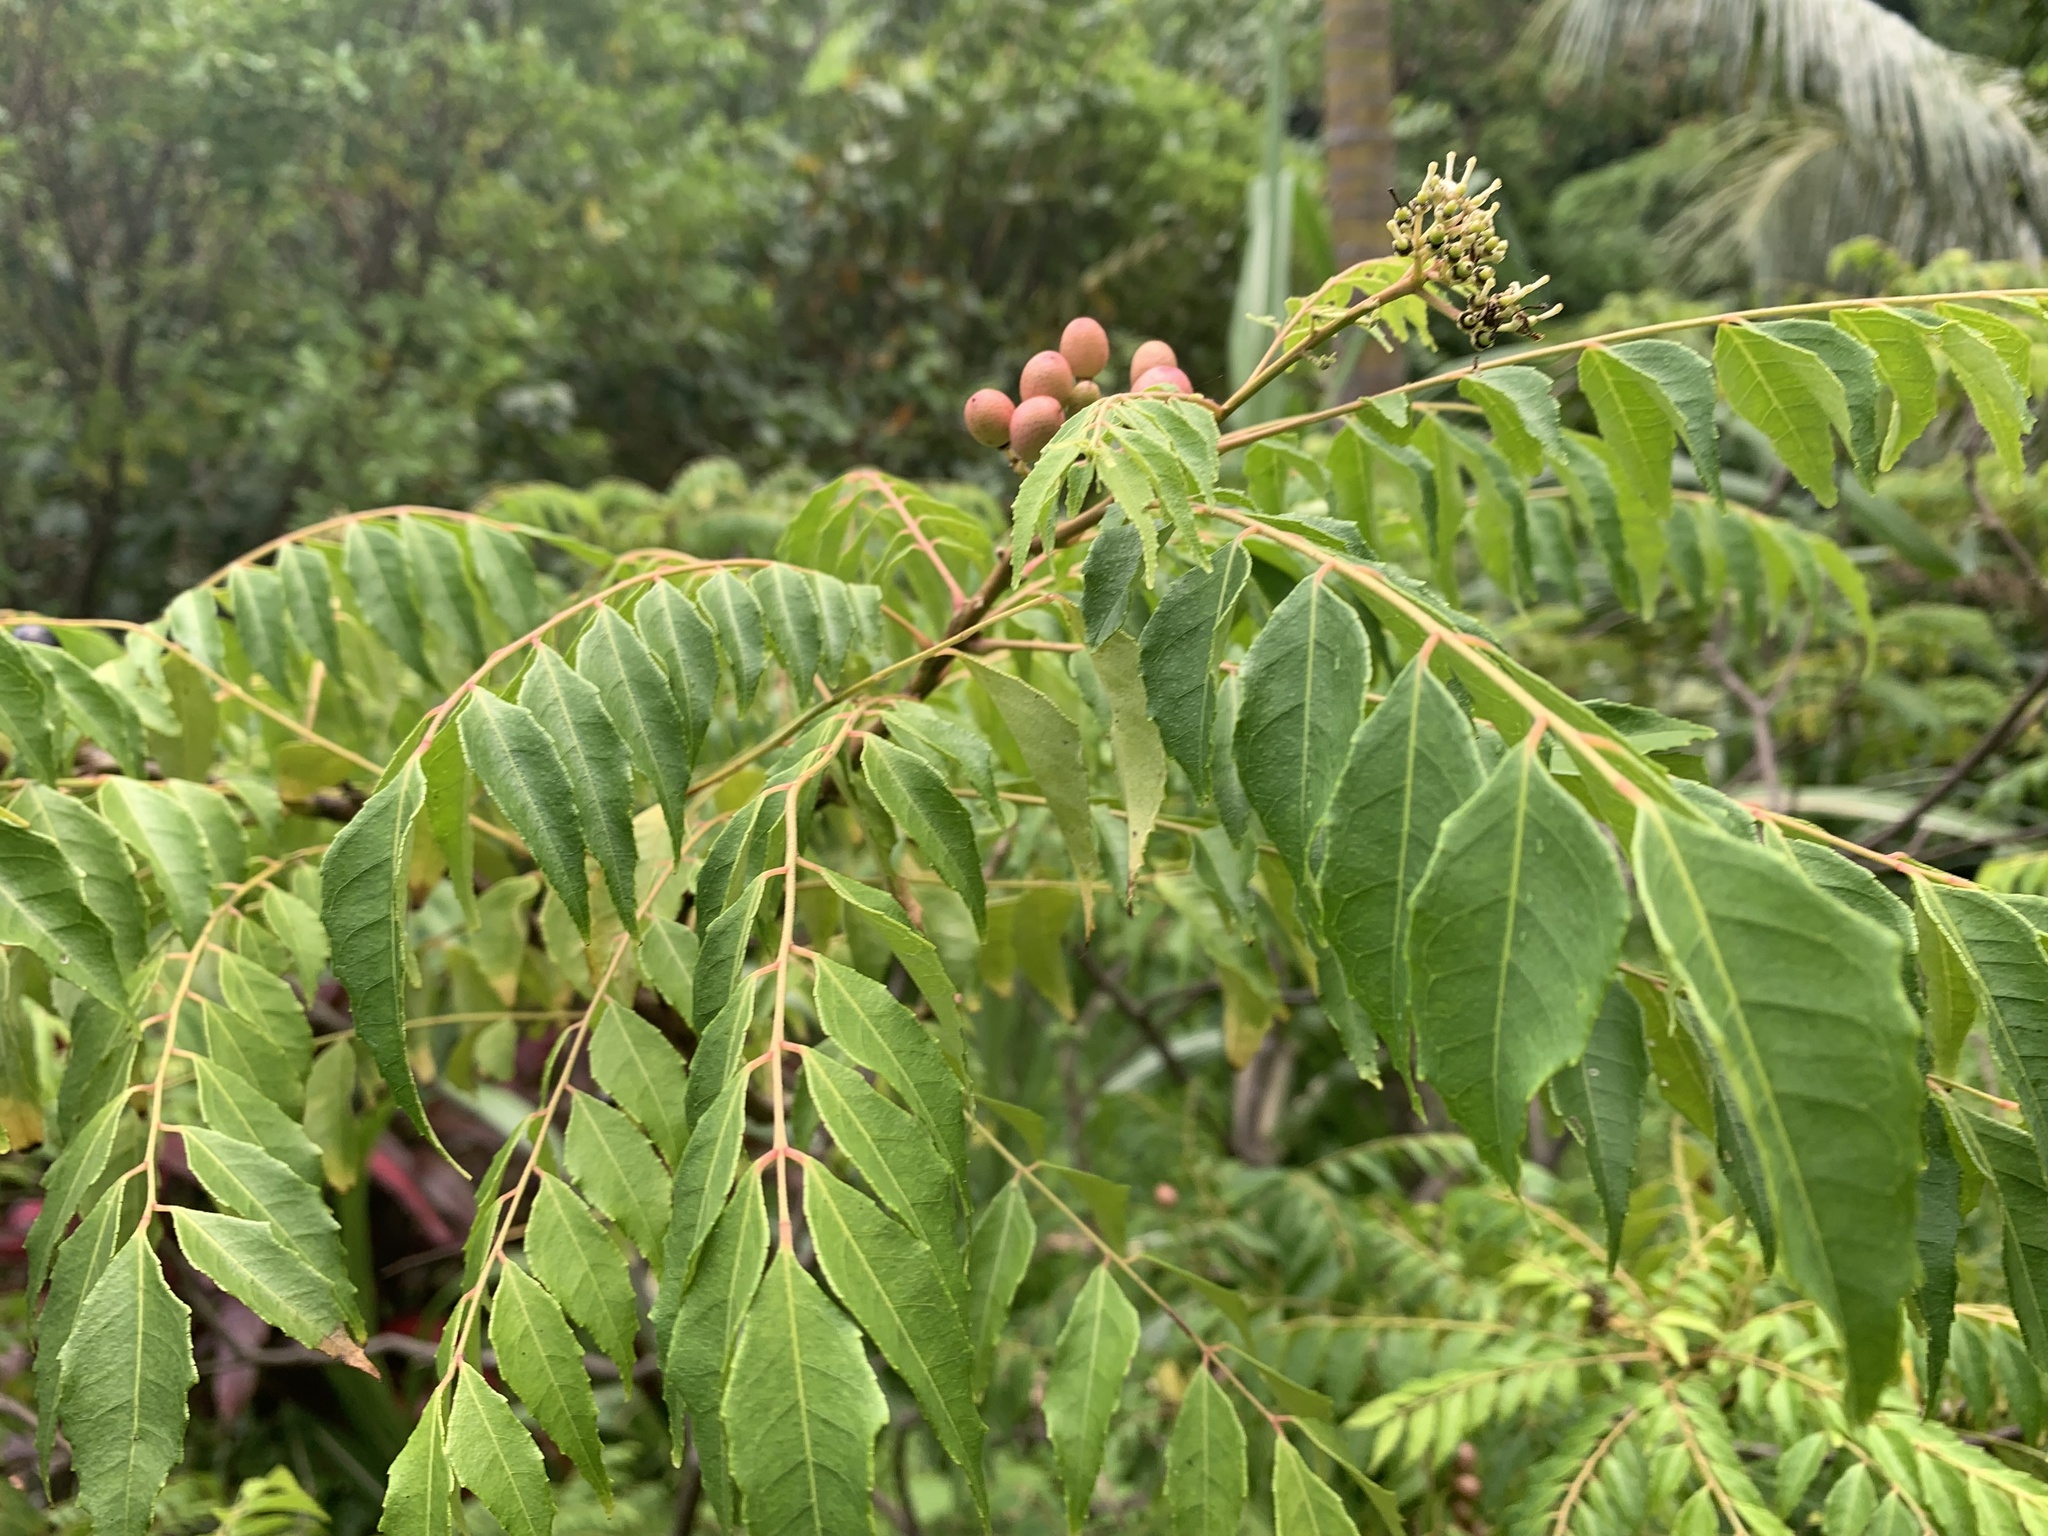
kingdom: Plantae
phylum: Tracheophyta
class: Magnoliopsida
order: Sapindales
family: Rutaceae
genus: Murraya
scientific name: Murraya koenigii
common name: Curry-plant
